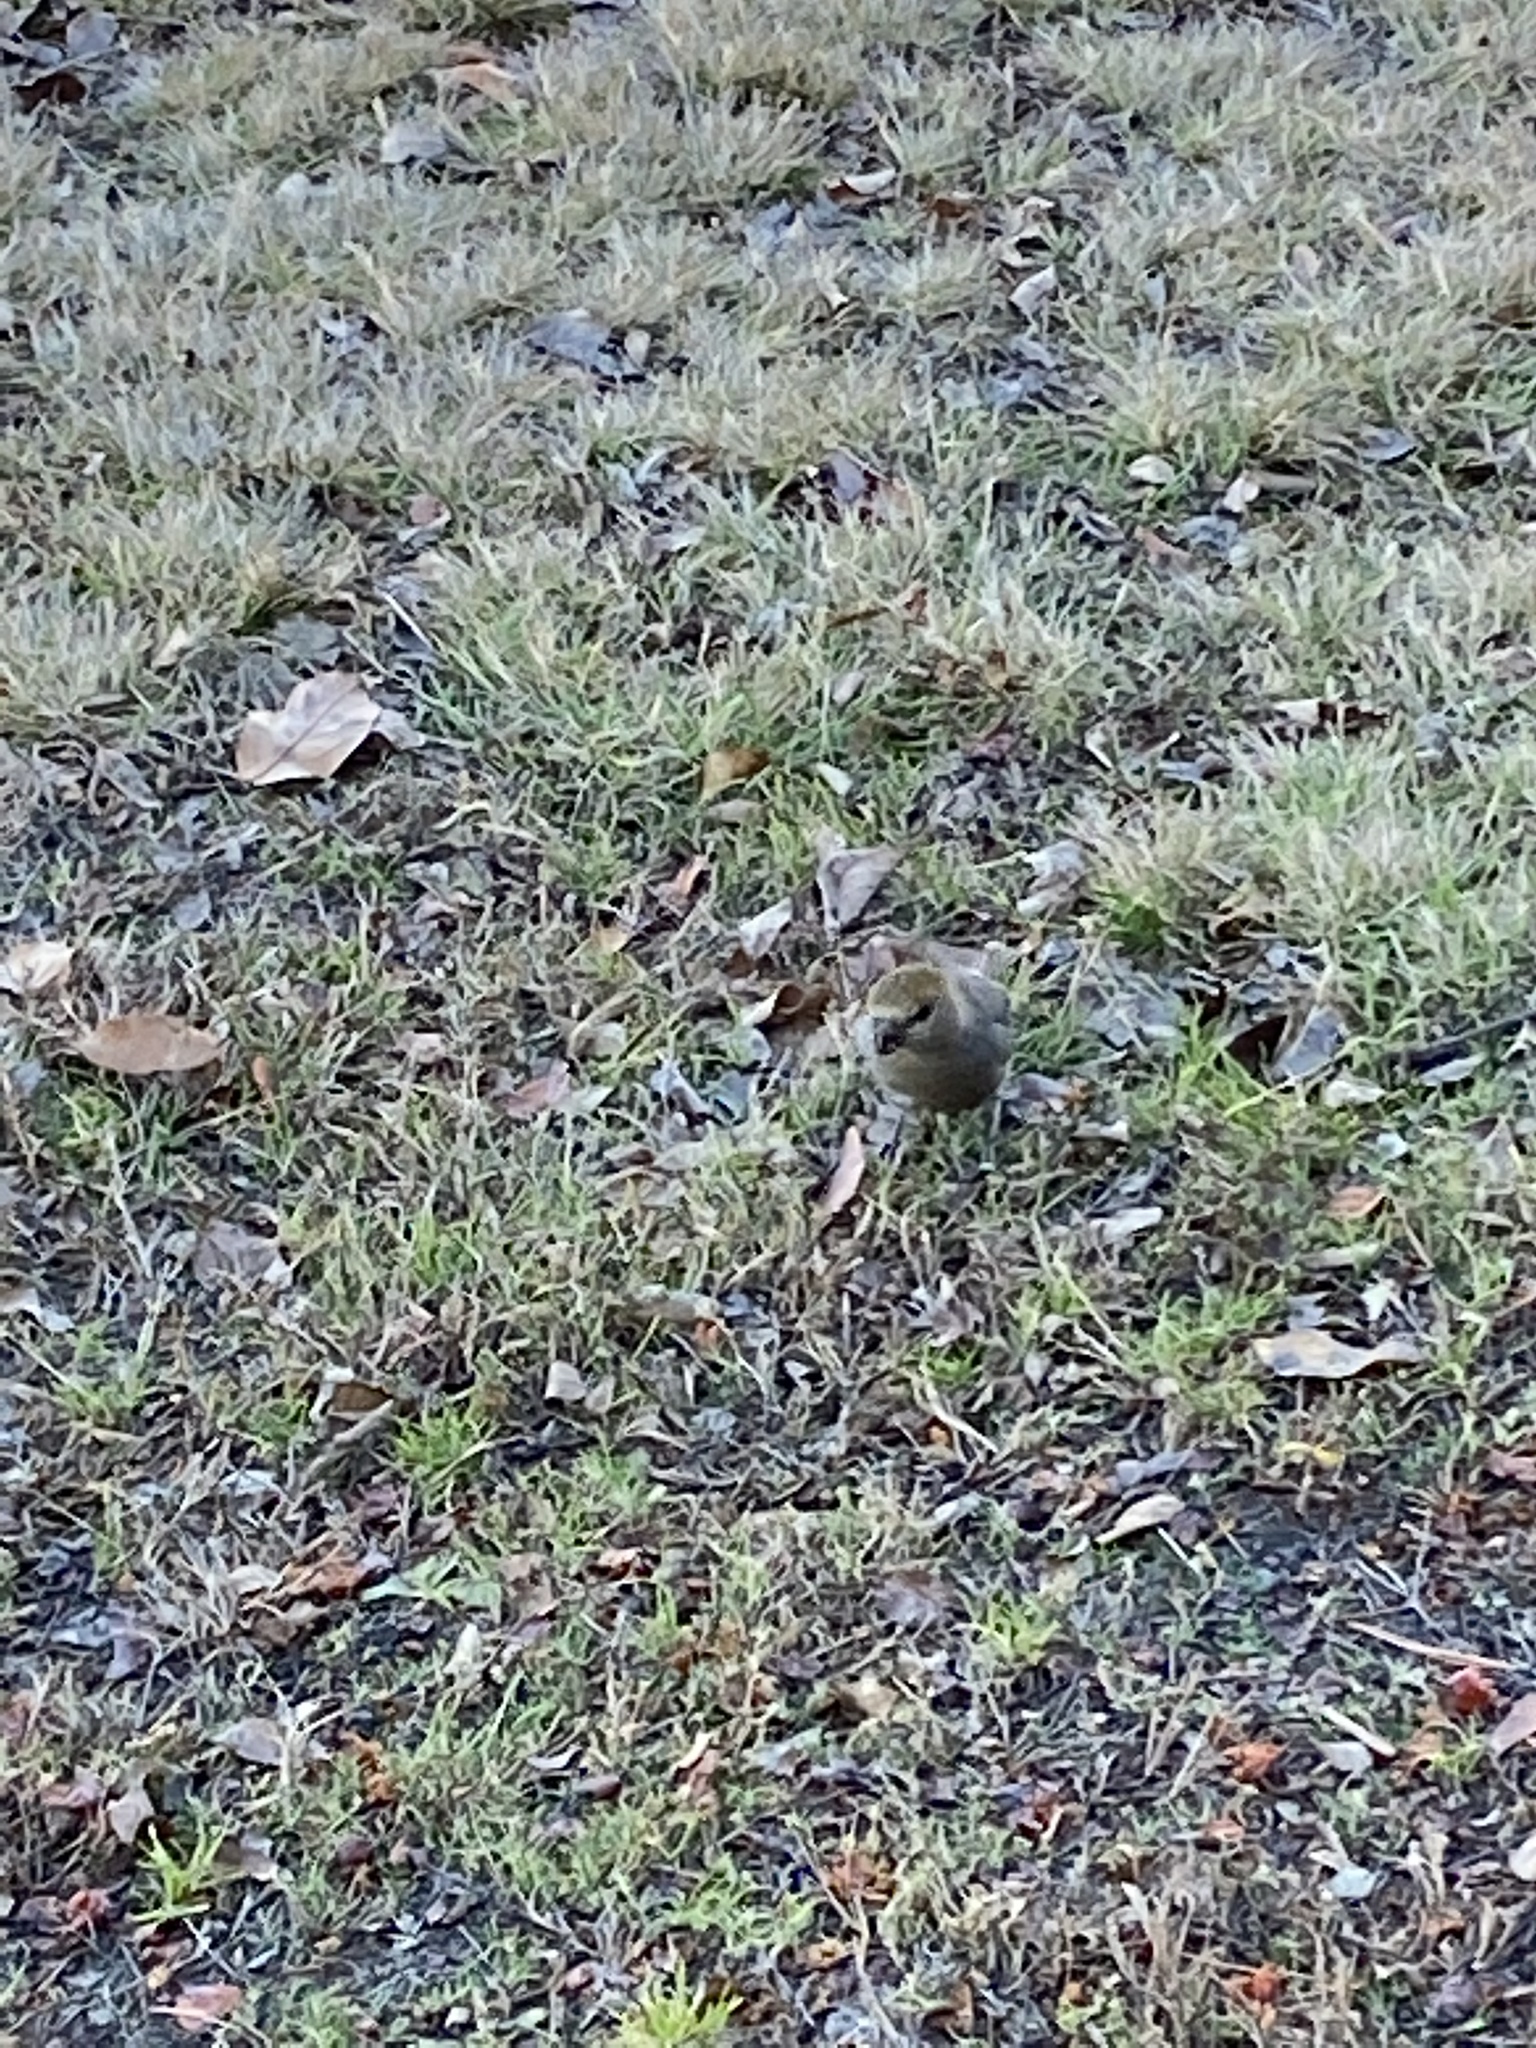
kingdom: Animalia
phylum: Chordata
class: Aves
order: Passeriformes
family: Fringillidae
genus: Pinicola
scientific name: Pinicola enucleator
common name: Pine grosbeak
